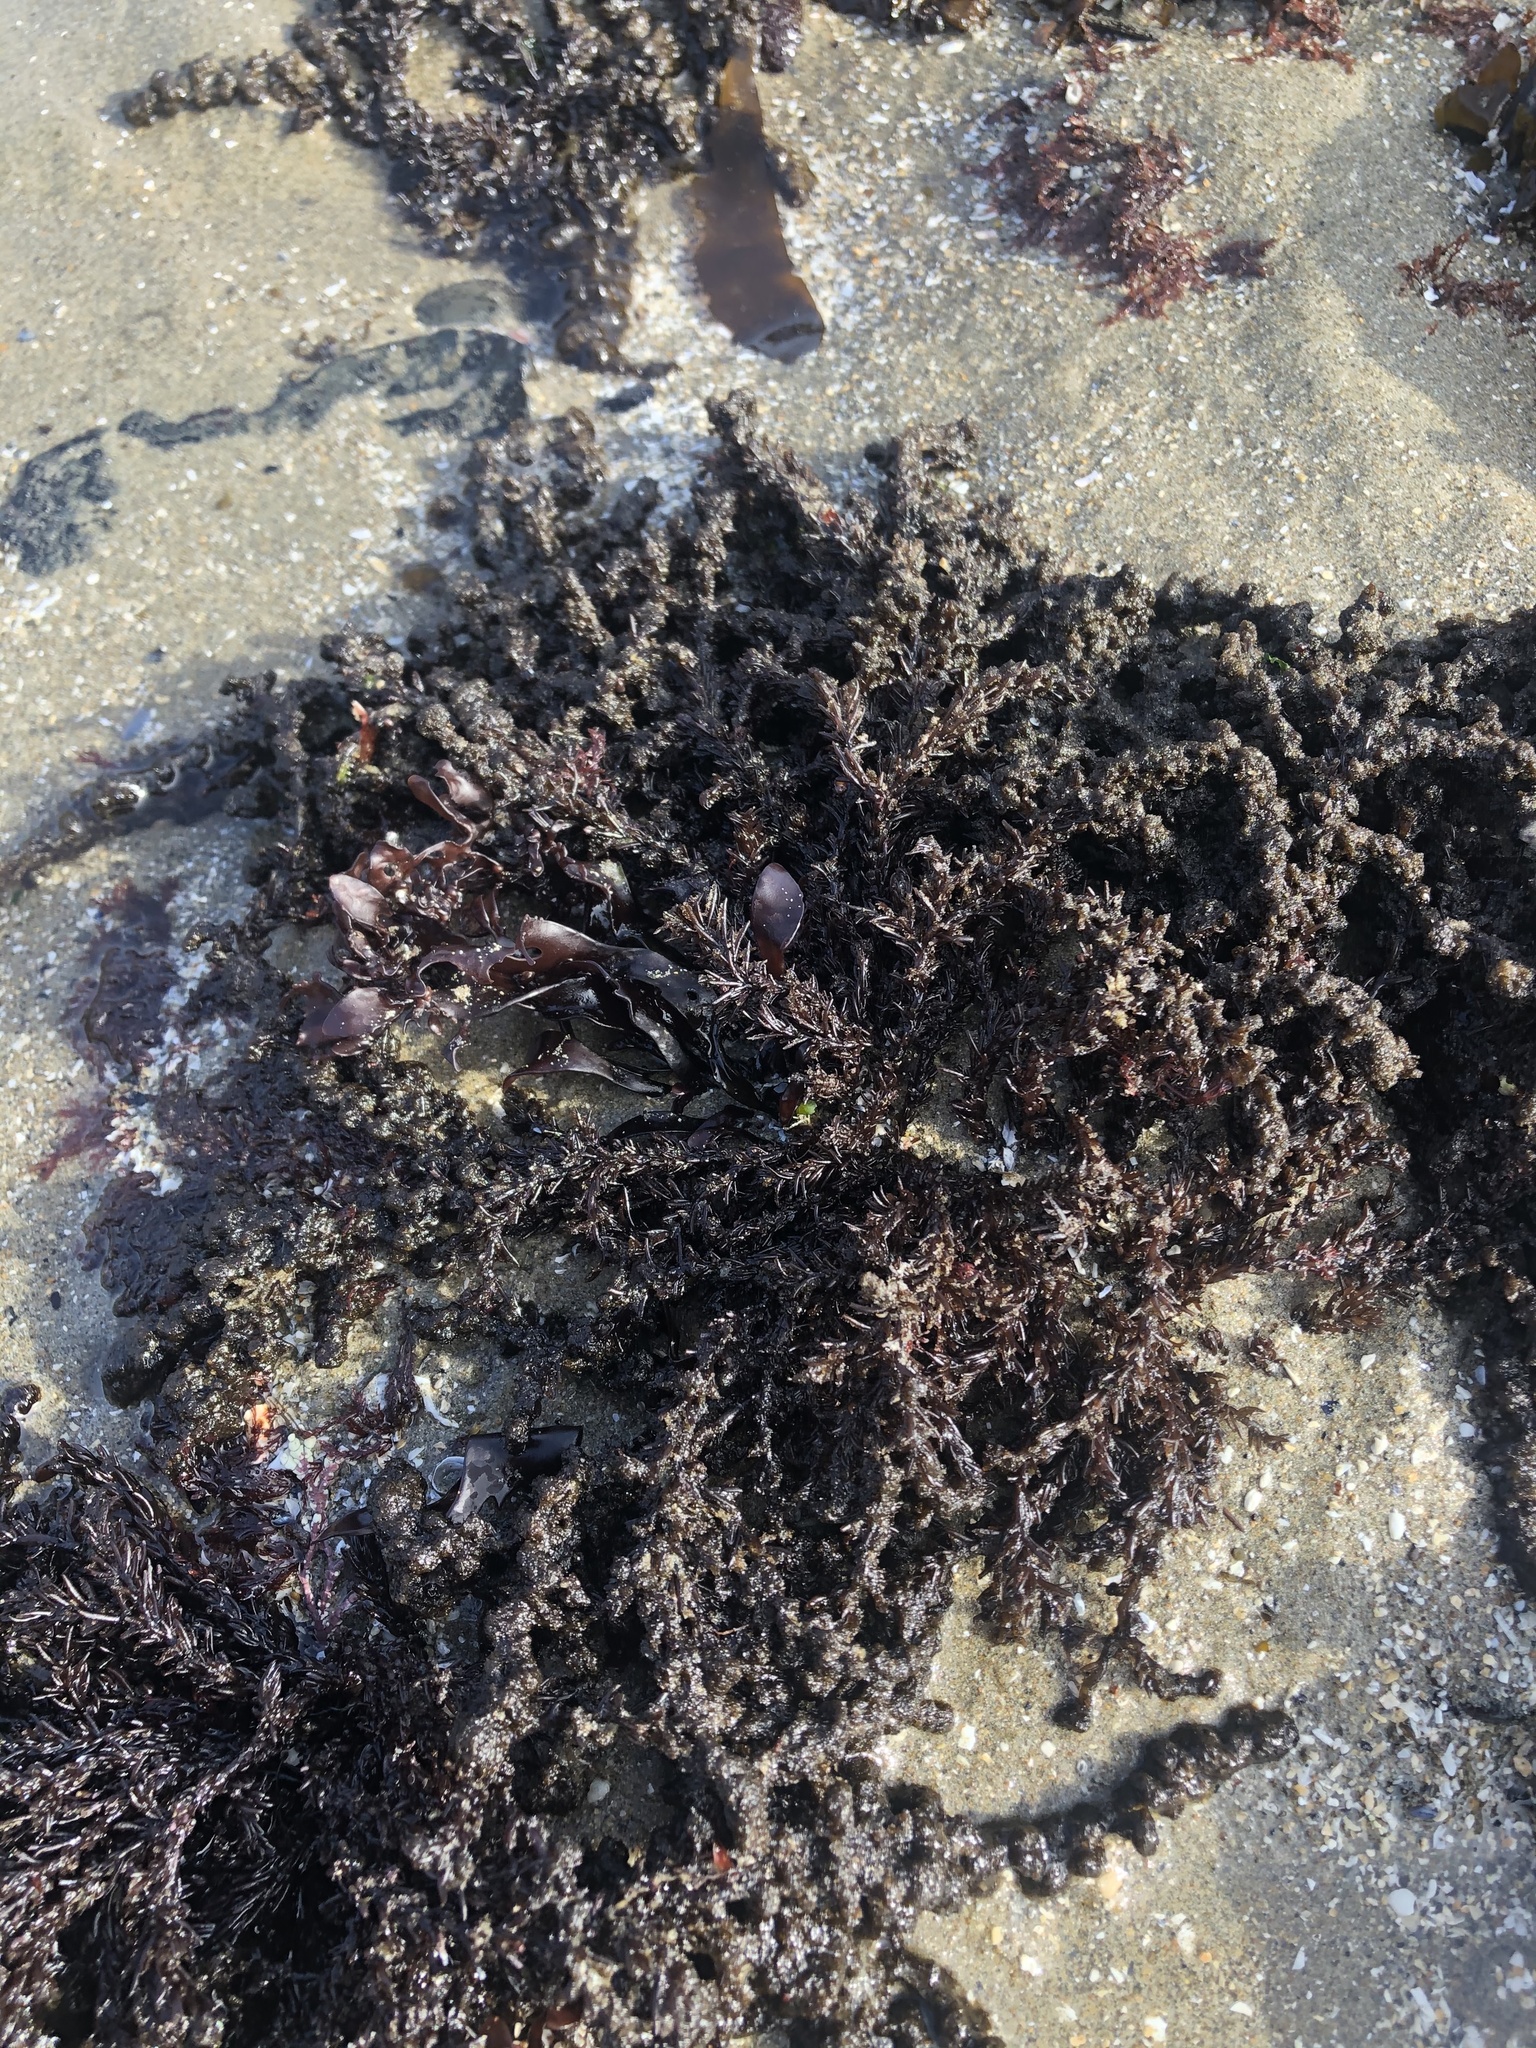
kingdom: Plantae
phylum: Rhodophyta
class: Florideophyceae
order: Ceramiales
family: Rhodomelaceae
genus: Neorhodomela
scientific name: Neorhodomela larix
